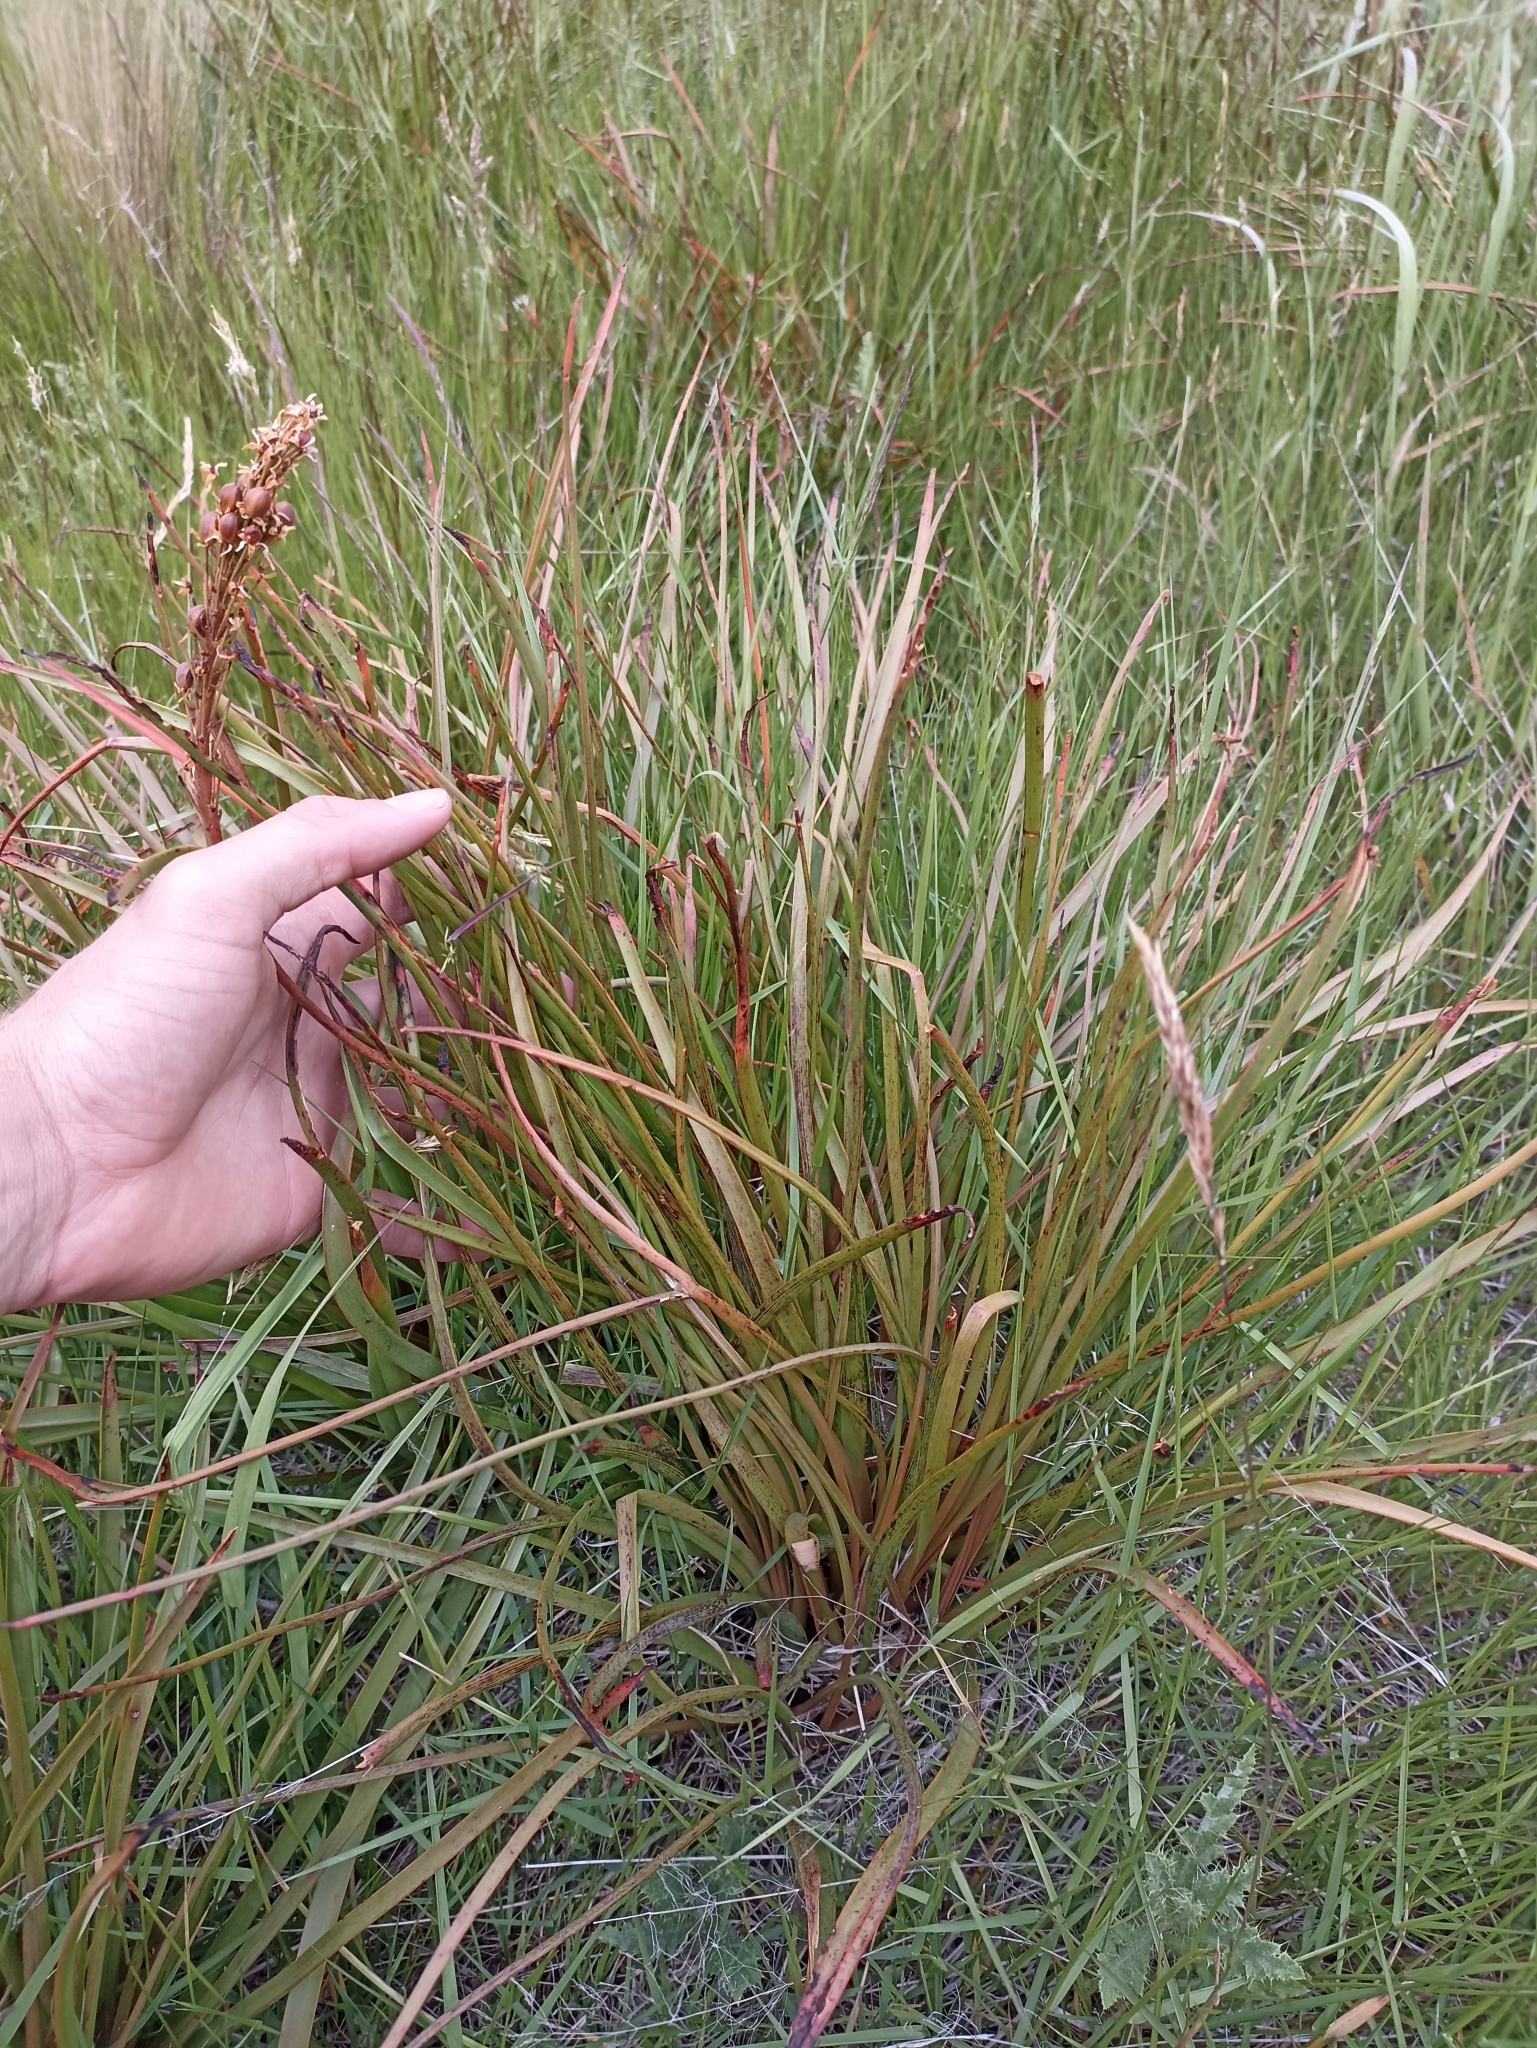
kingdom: Plantae
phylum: Tracheophyta
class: Liliopsida
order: Asparagales
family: Asphodelaceae
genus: Bulbinella
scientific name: Bulbinella angustifolia
